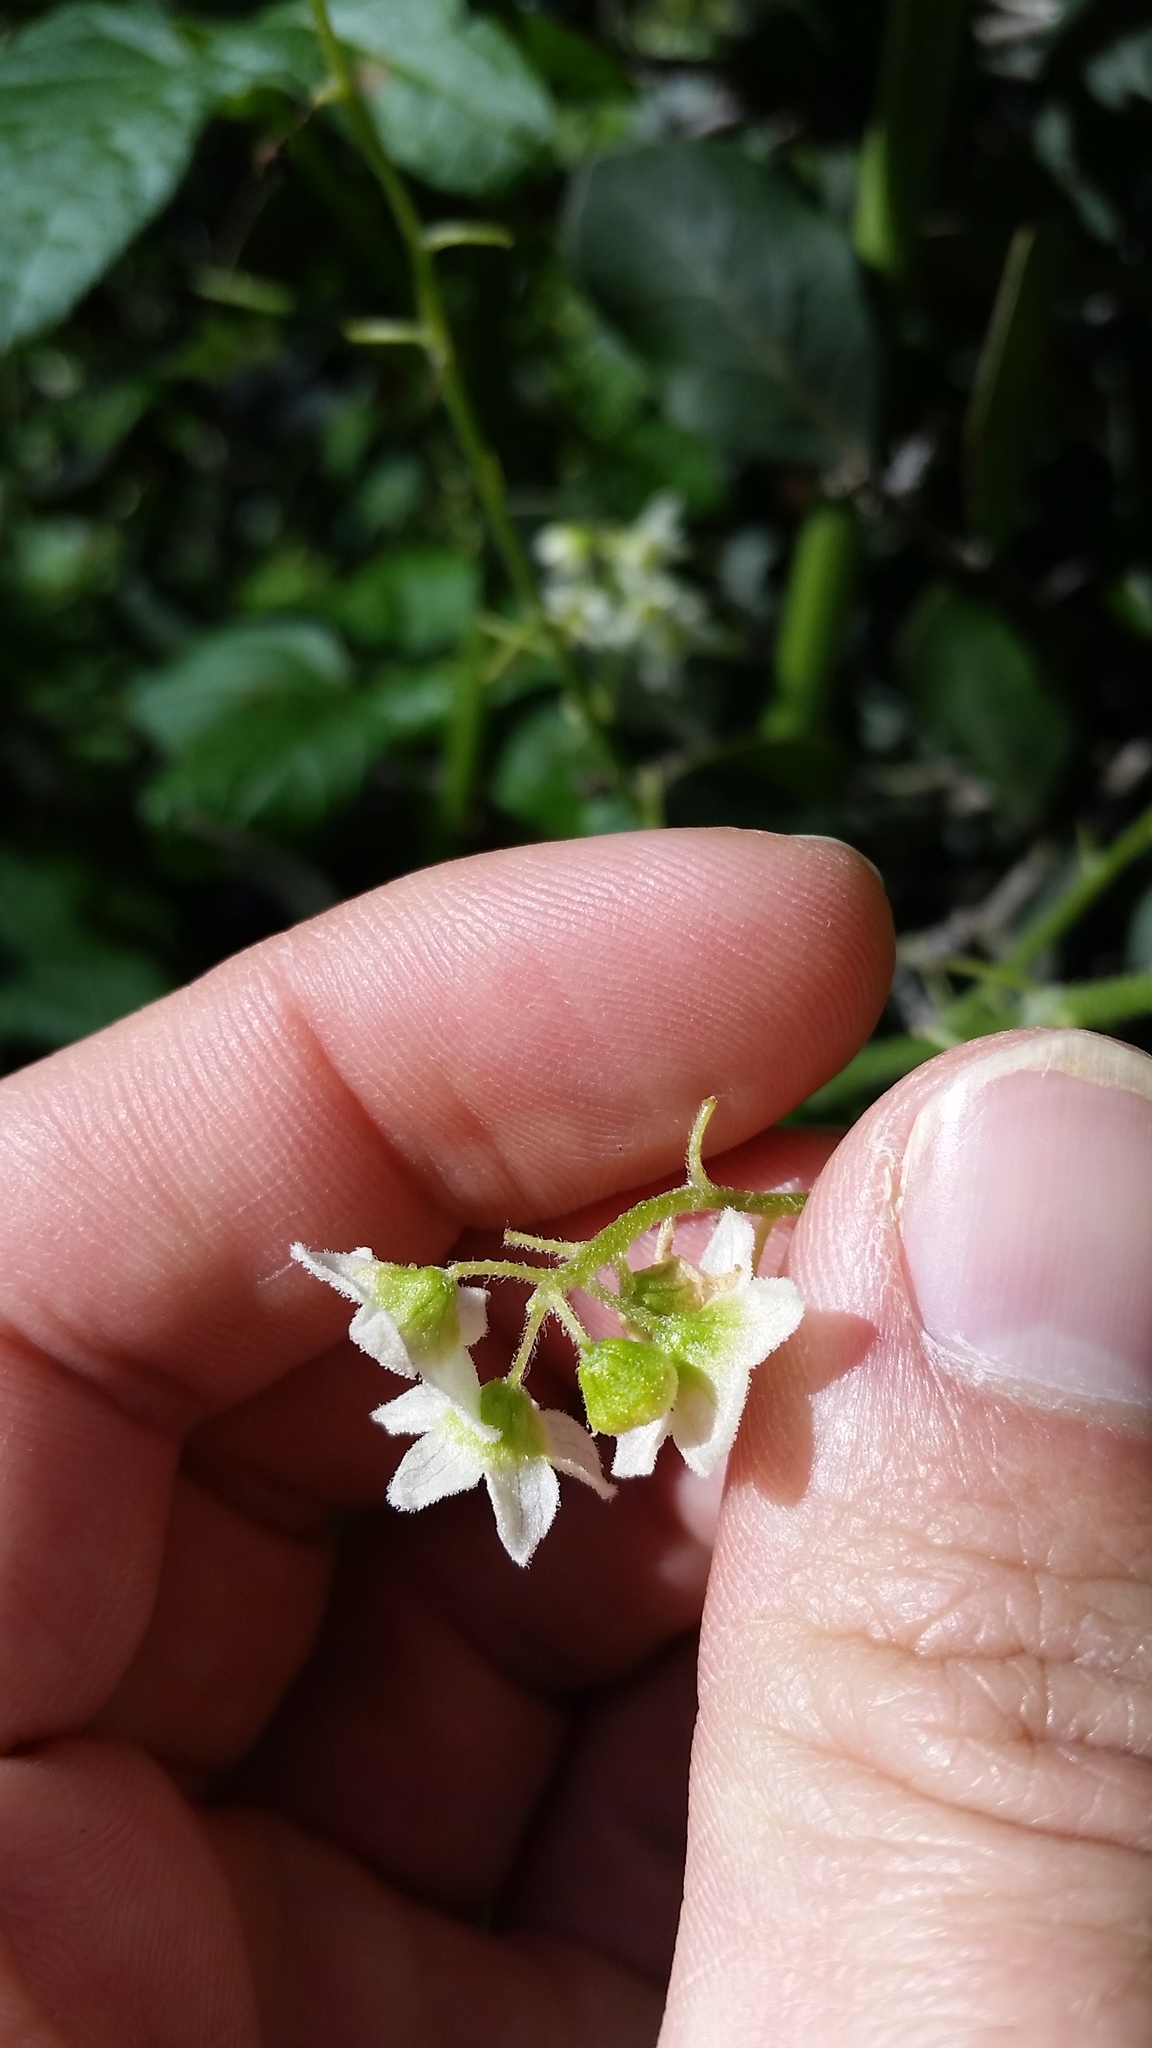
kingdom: Plantae
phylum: Tracheophyta
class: Magnoliopsida
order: Cucurbitales
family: Cucurbitaceae
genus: Marah
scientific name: Marah macrocarpa
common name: Cucamonga manroot
